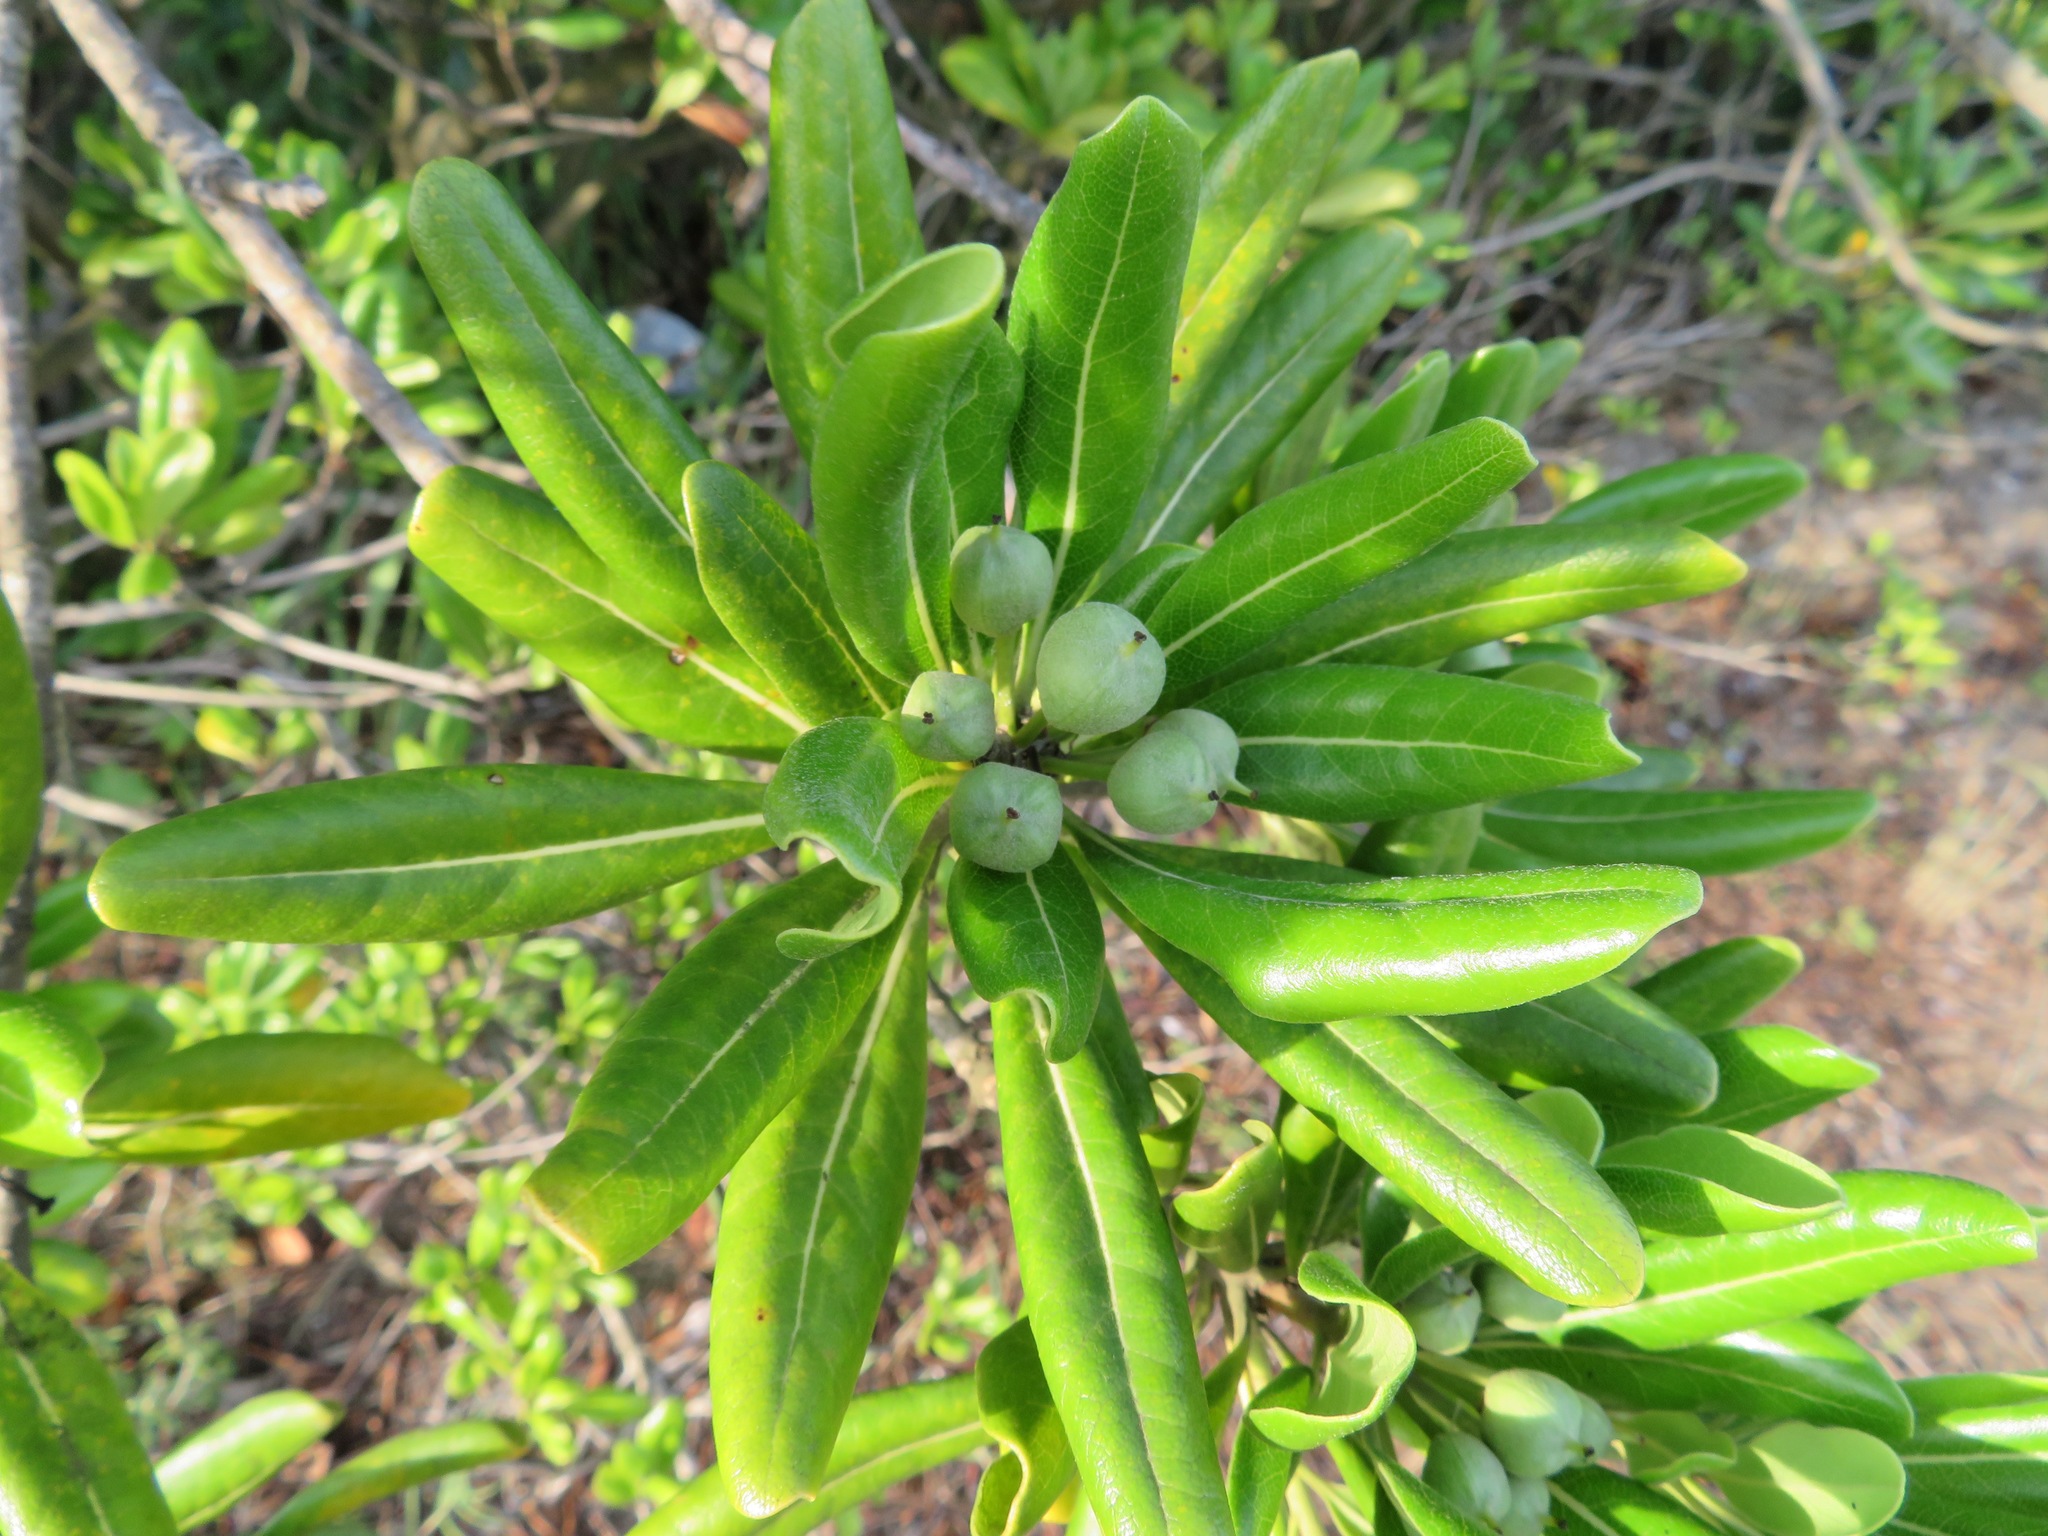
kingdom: Plantae
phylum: Tracheophyta
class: Magnoliopsida
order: Apiales
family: Pittosporaceae
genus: Pittosporum
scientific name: Pittosporum tobira
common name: Japanese cheesewood
